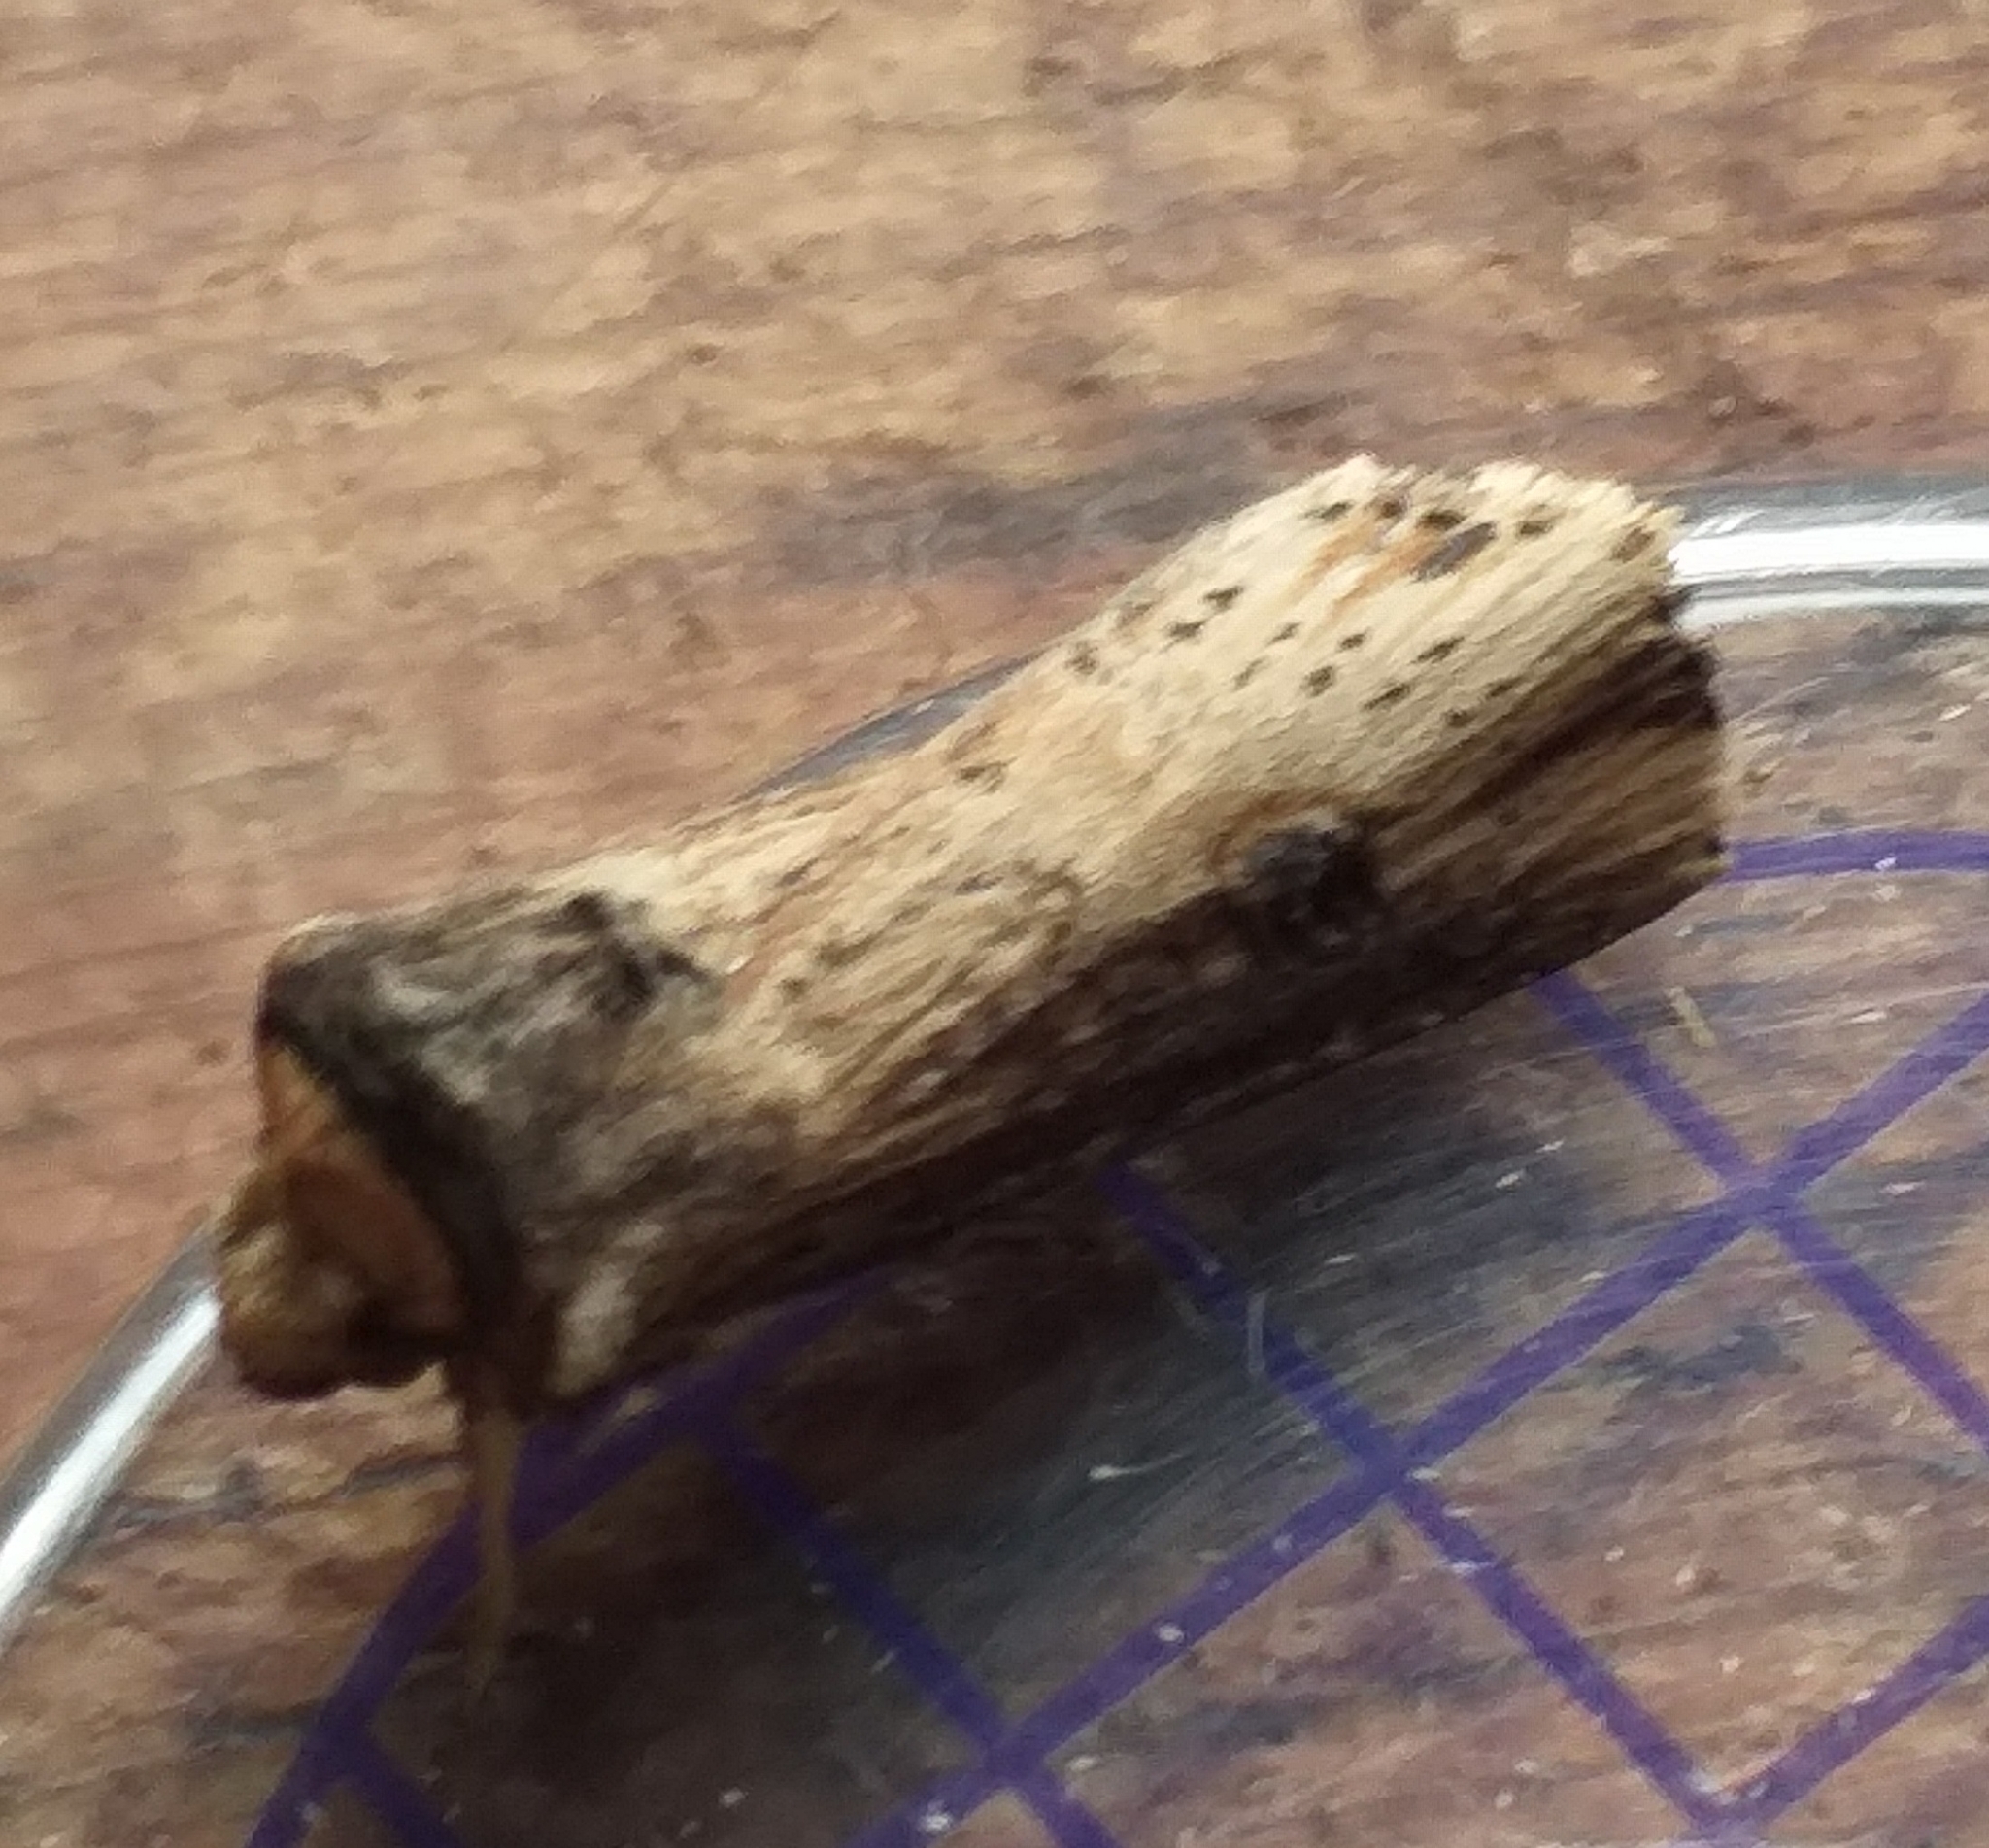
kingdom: Animalia
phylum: Arthropoda
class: Insecta
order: Lepidoptera
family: Noctuidae
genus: Axylia
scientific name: Axylia putris
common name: Flame
